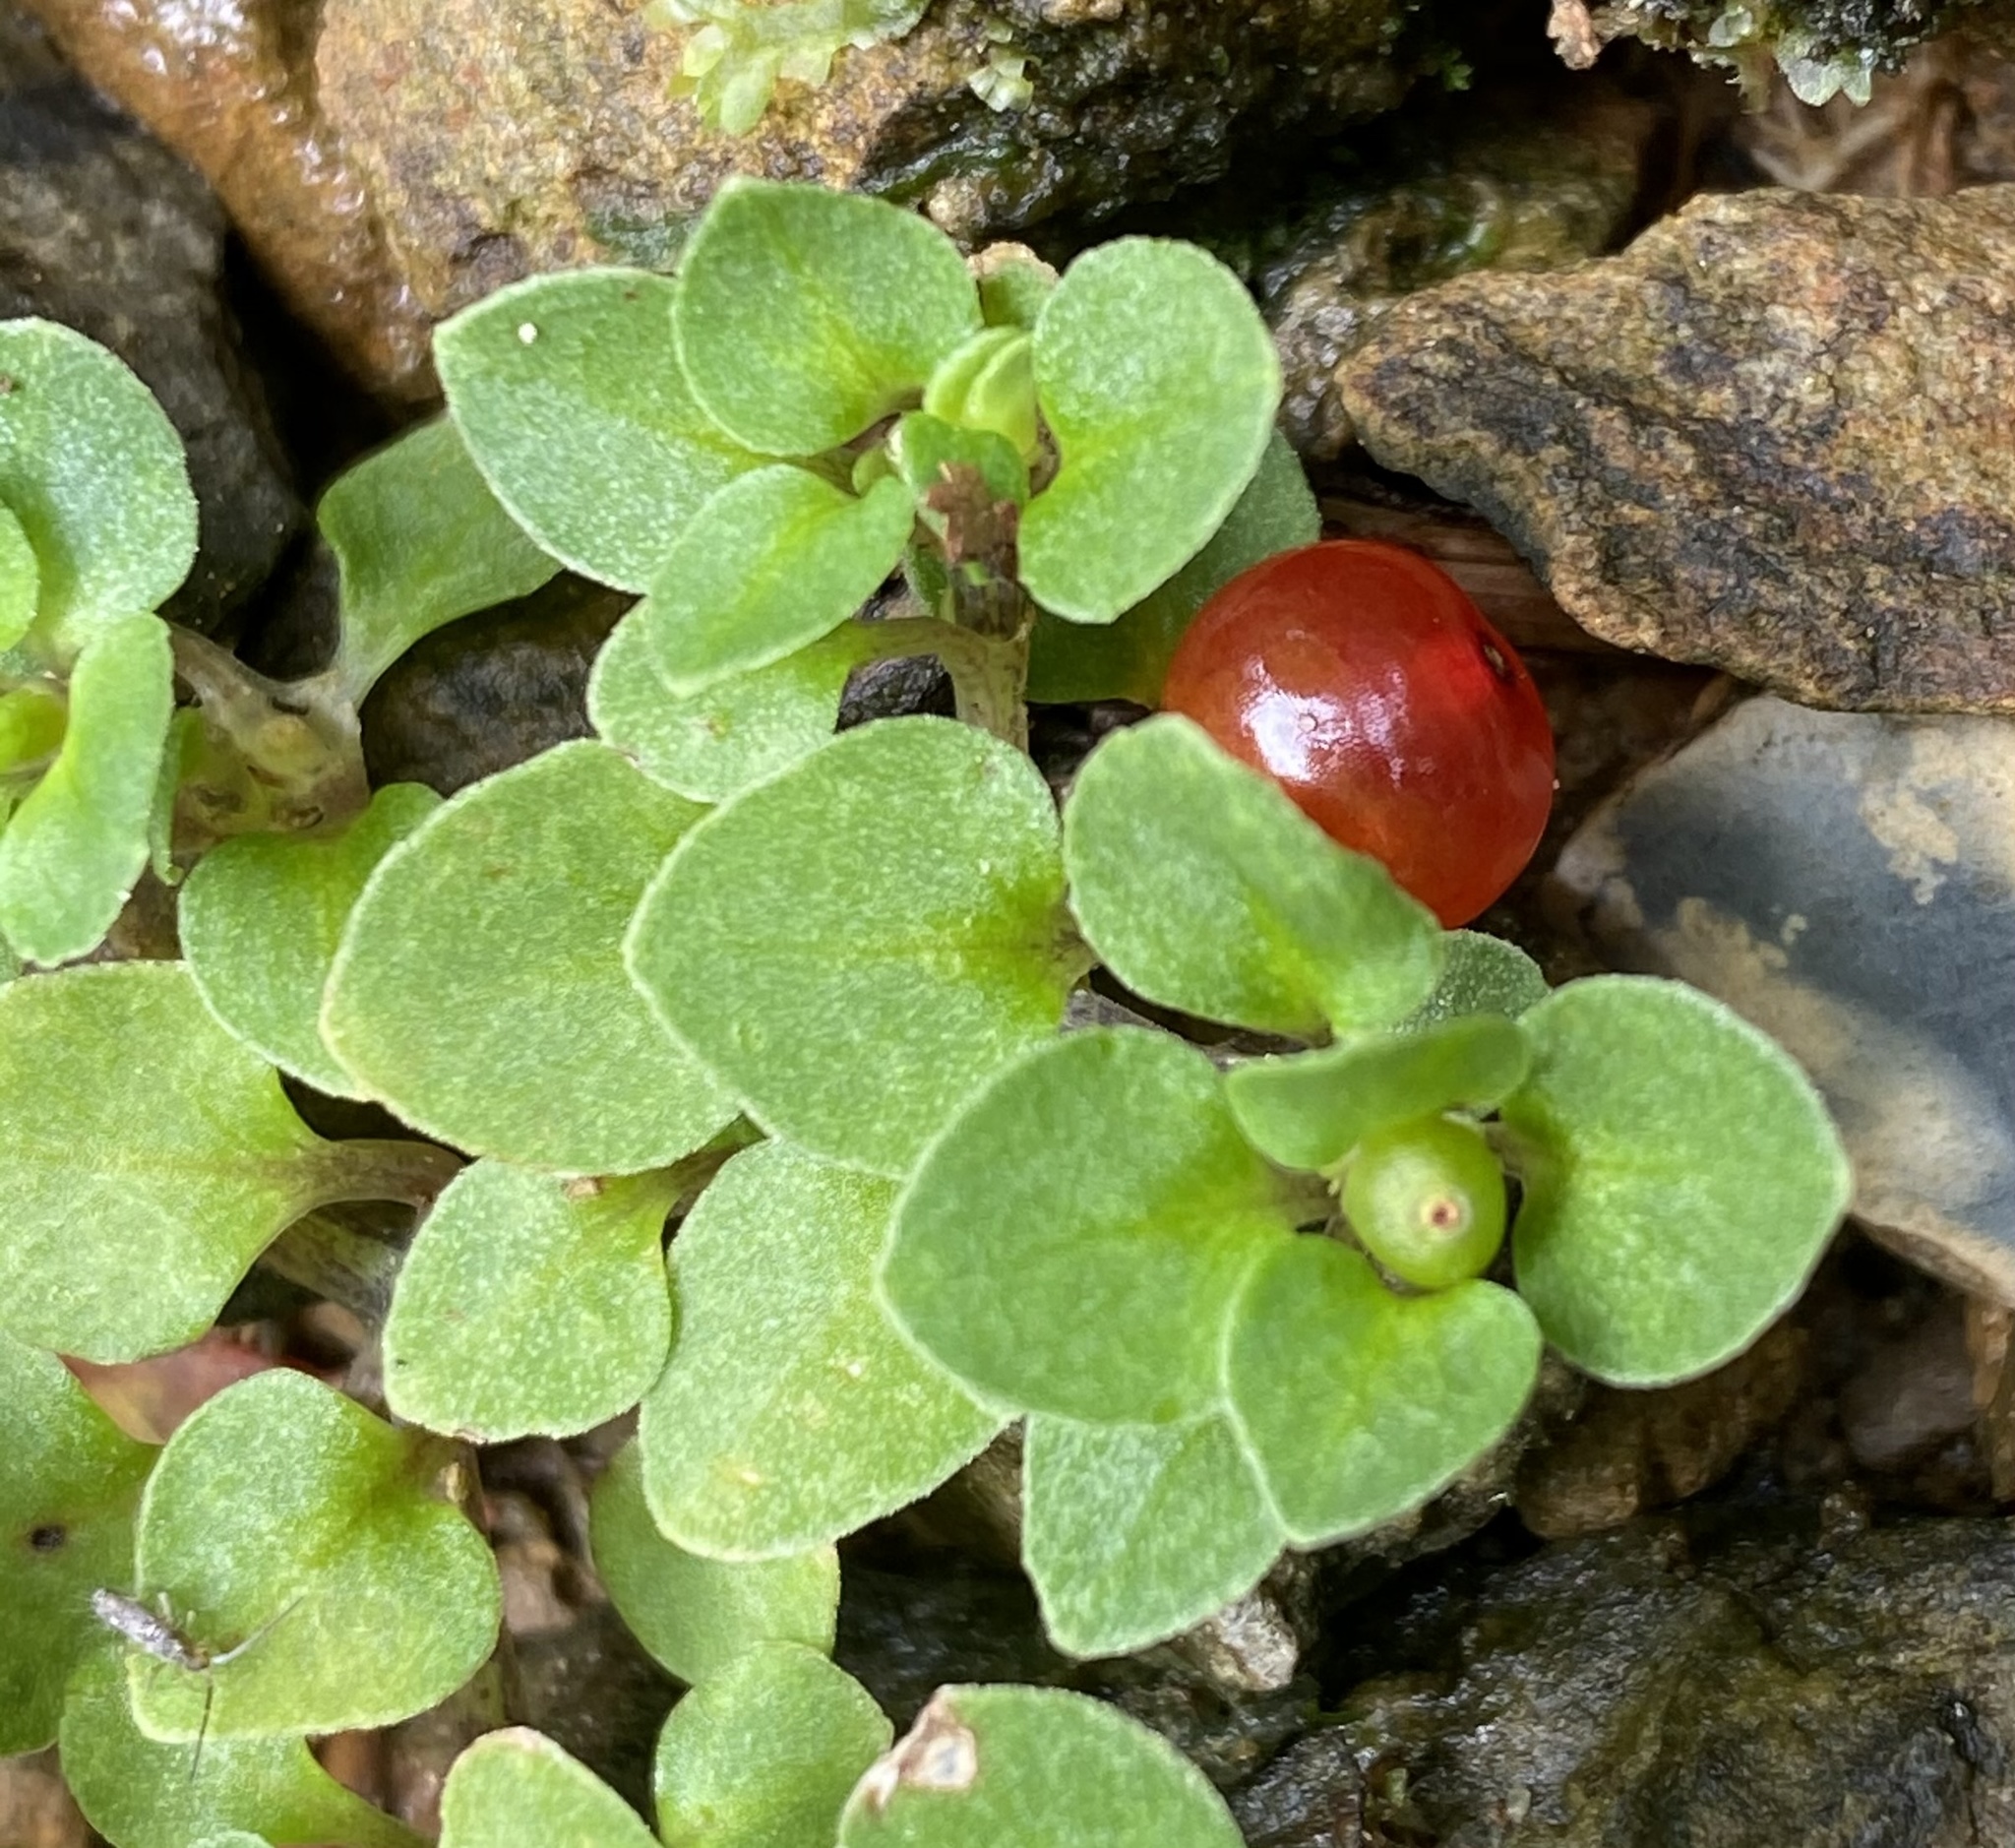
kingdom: Plantae
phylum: Tracheophyta
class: Magnoliopsida
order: Gentianales
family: Rubiaceae
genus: Nertera
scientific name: Nertera granadensis
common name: Beadplant
